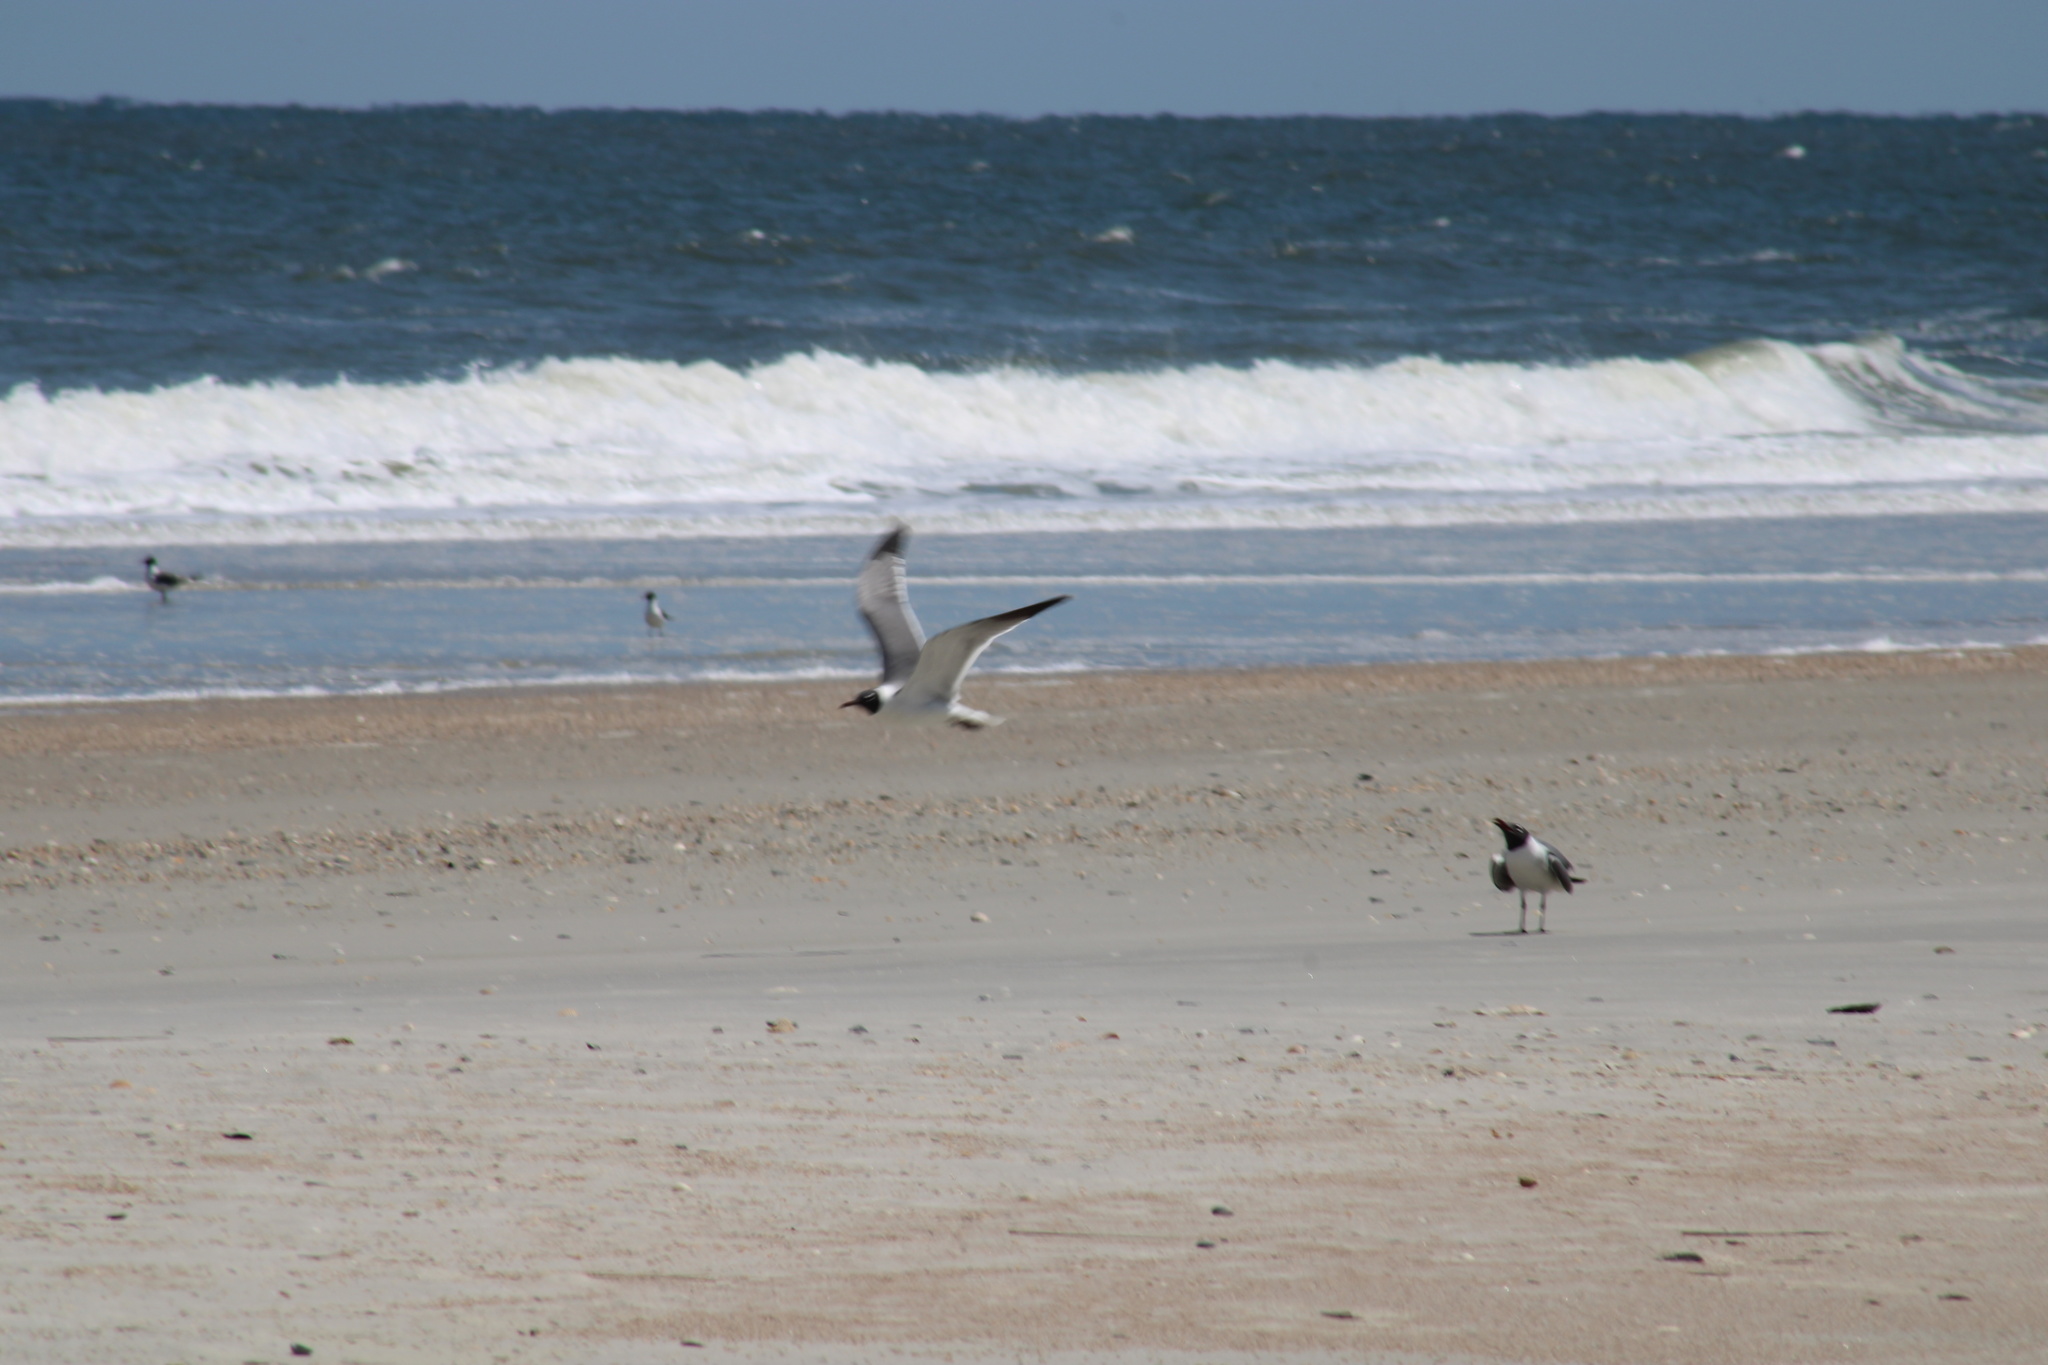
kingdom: Animalia
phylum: Chordata
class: Aves
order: Charadriiformes
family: Laridae
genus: Leucophaeus
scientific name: Leucophaeus atricilla
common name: Laughing gull
